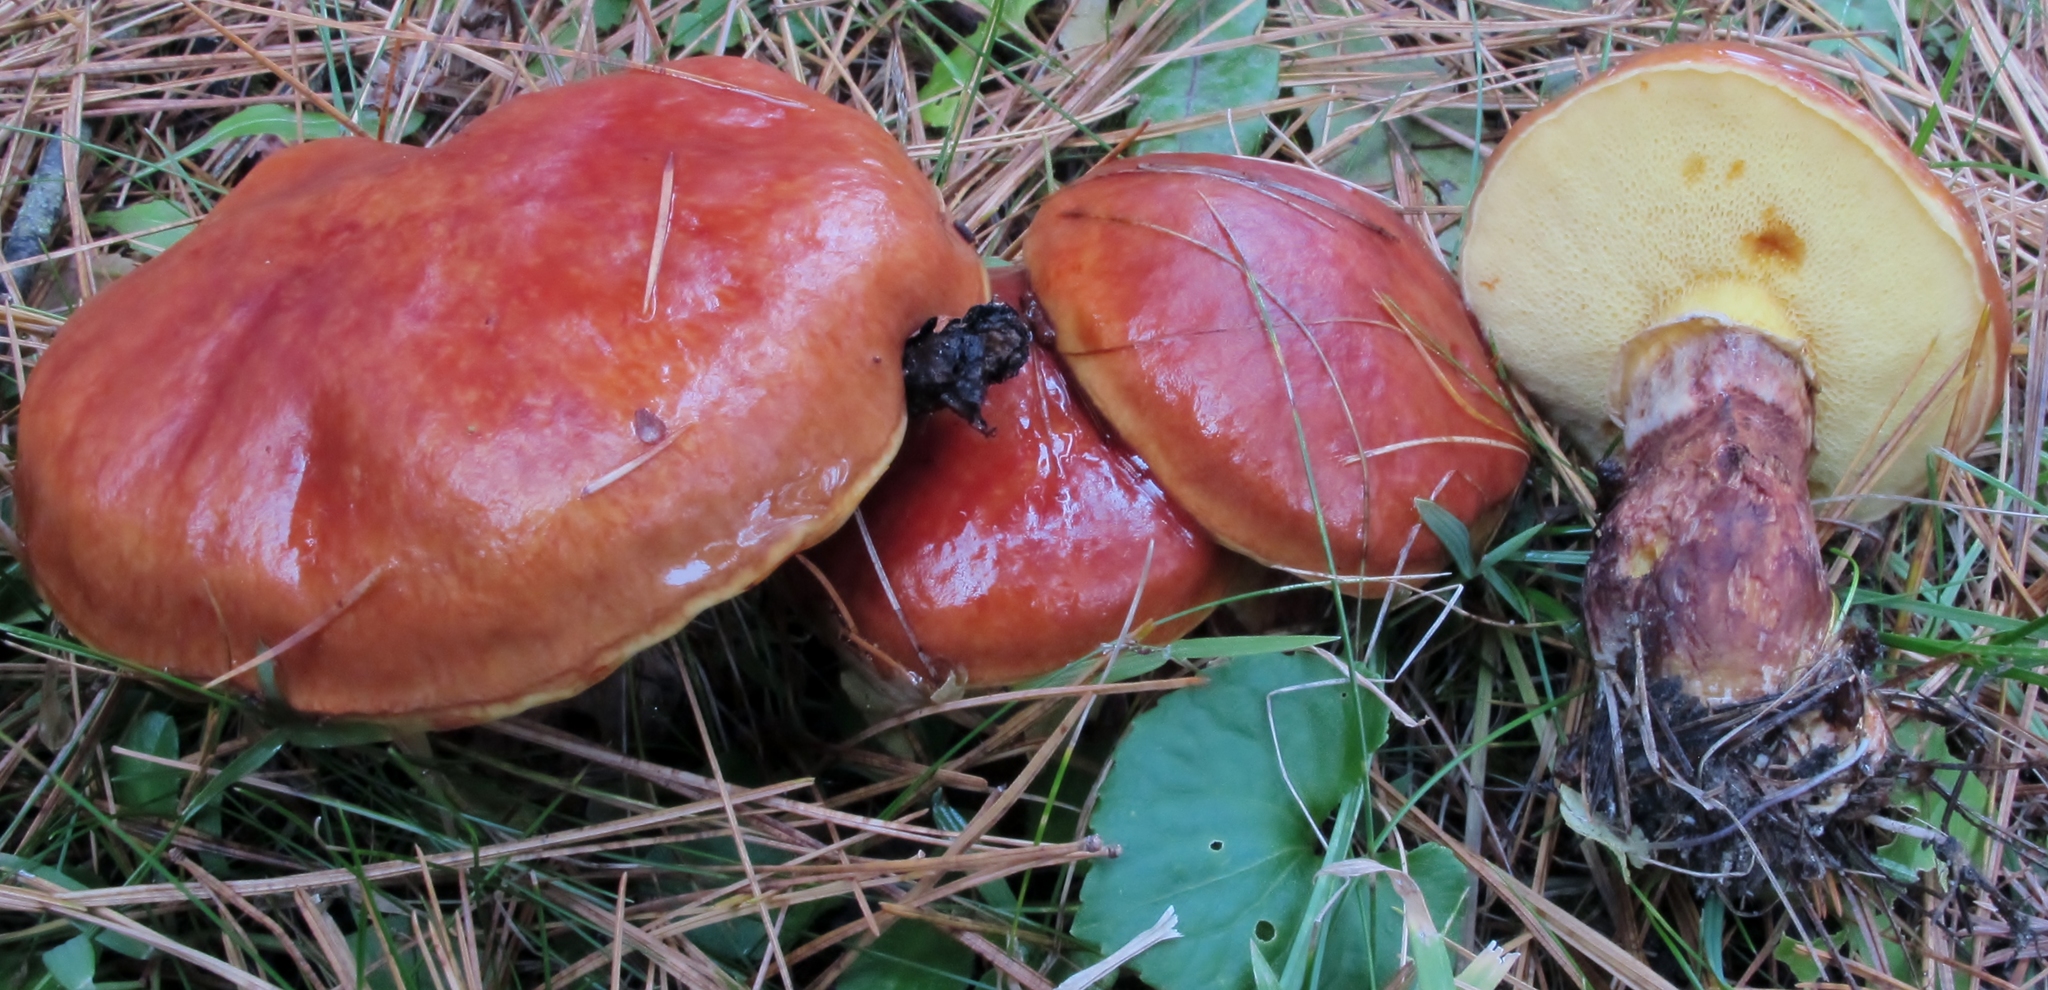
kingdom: Fungi
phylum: Basidiomycota
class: Agaricomycetes
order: Boletales
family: Suillaceae
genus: Suillus
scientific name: Suillus grevillei
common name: Larch bolete
